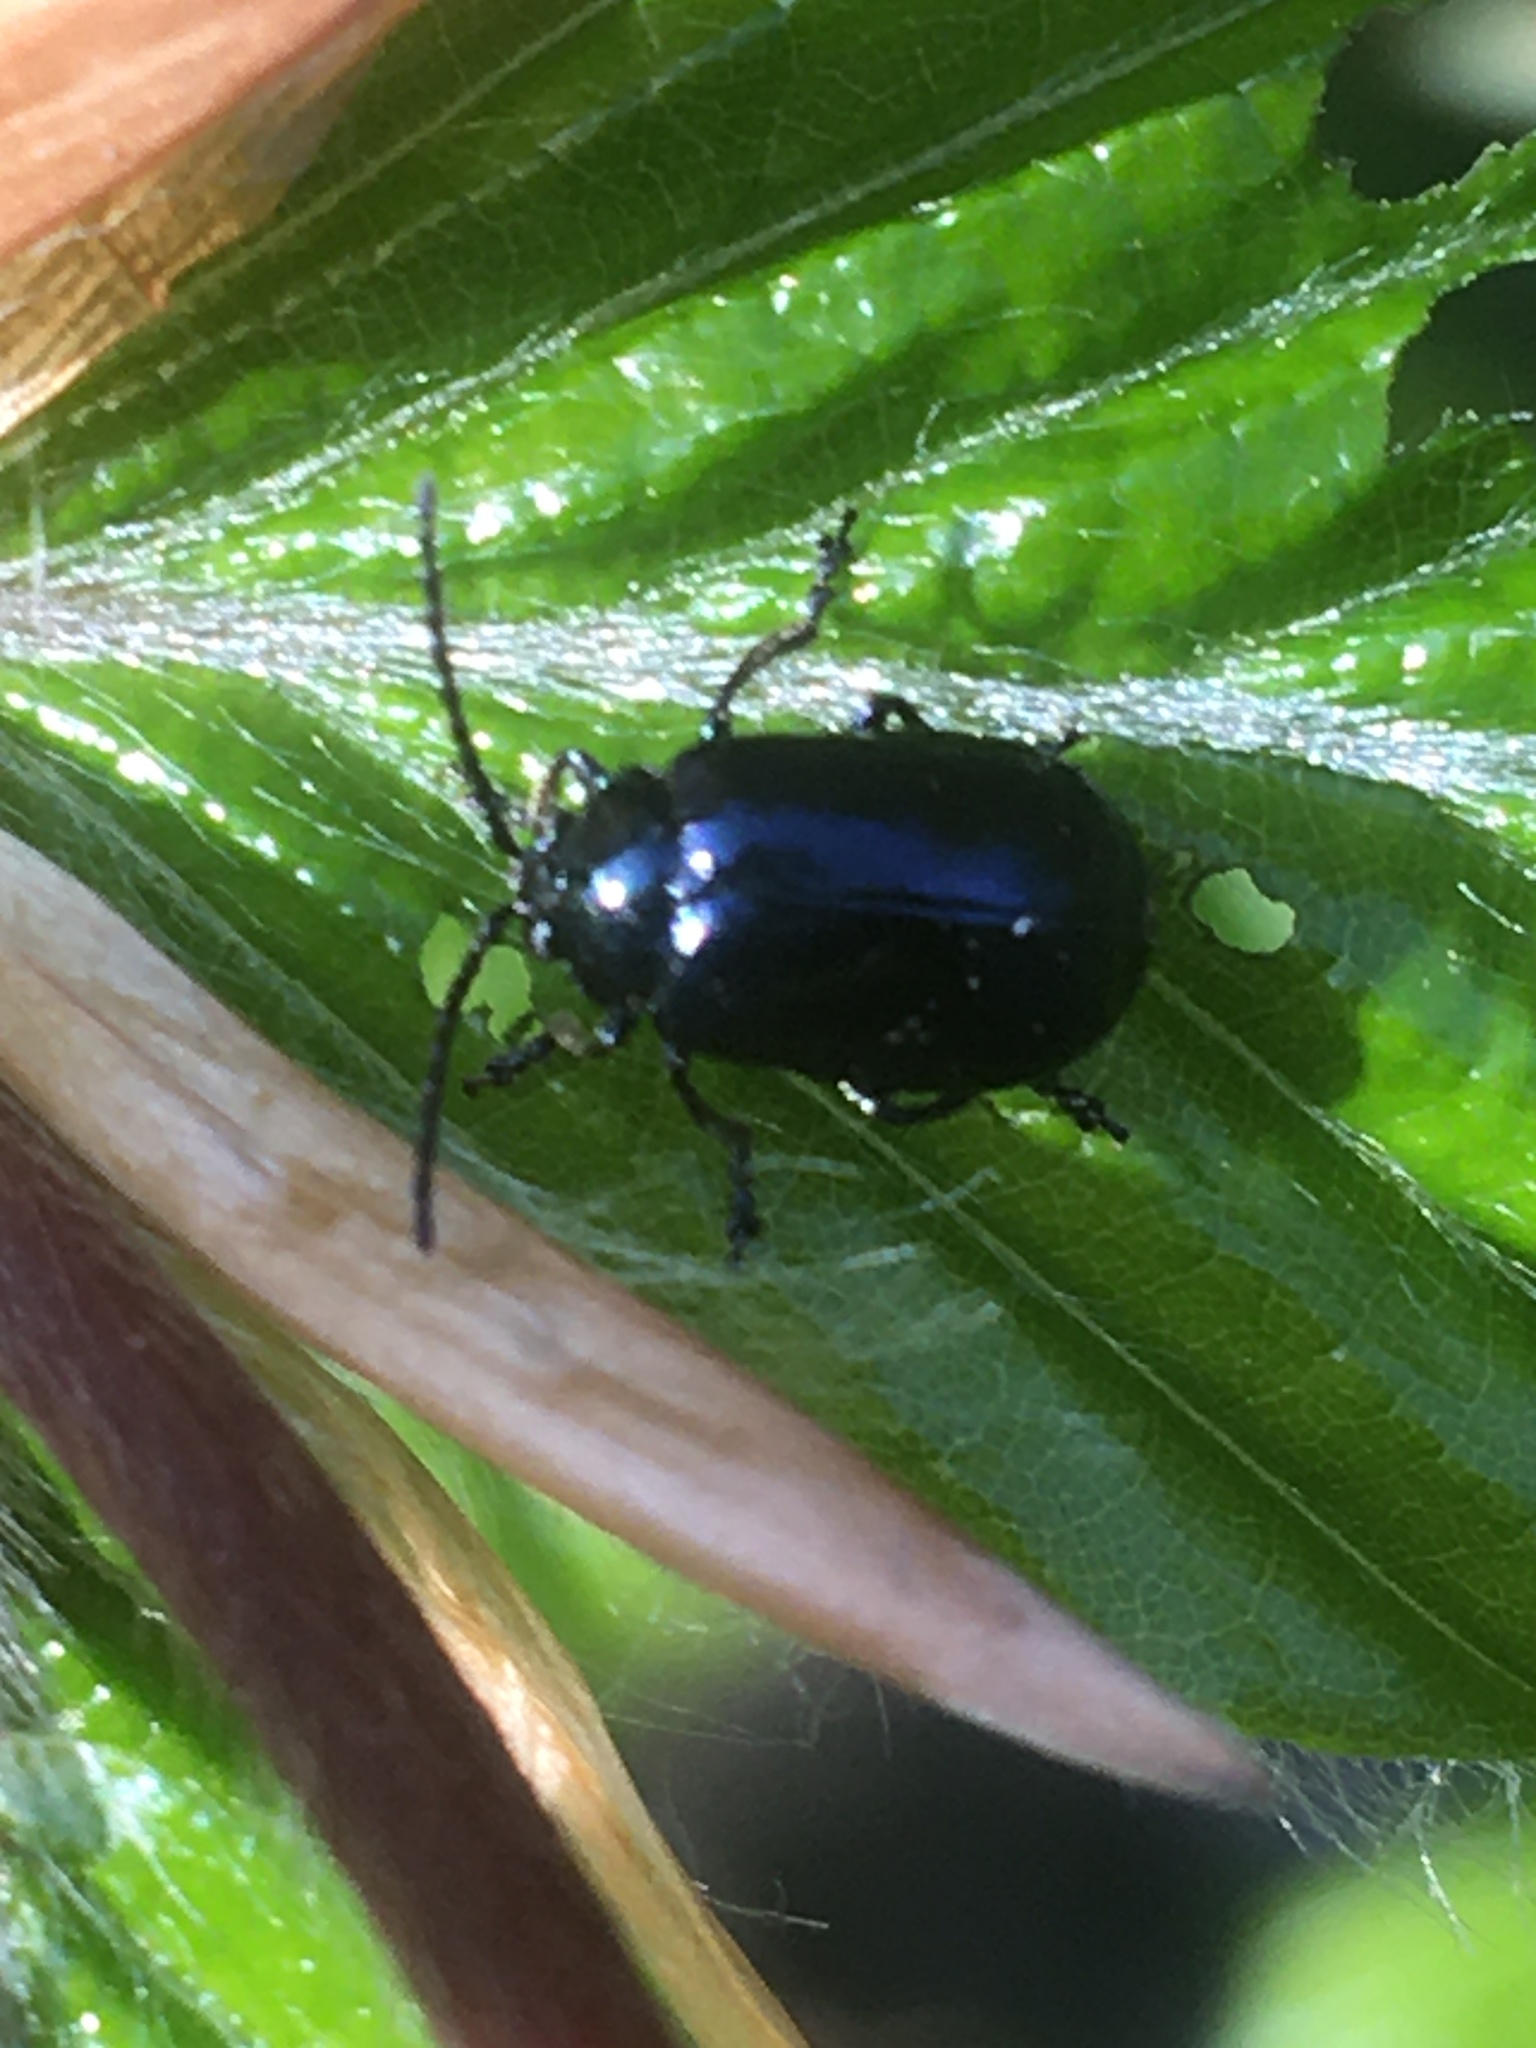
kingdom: Animalia
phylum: Arthropoda
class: Insecta
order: Coleoptera
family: Chrysomelidae
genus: Agelastica
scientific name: Agelastica alni
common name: Alder leaf beetle
